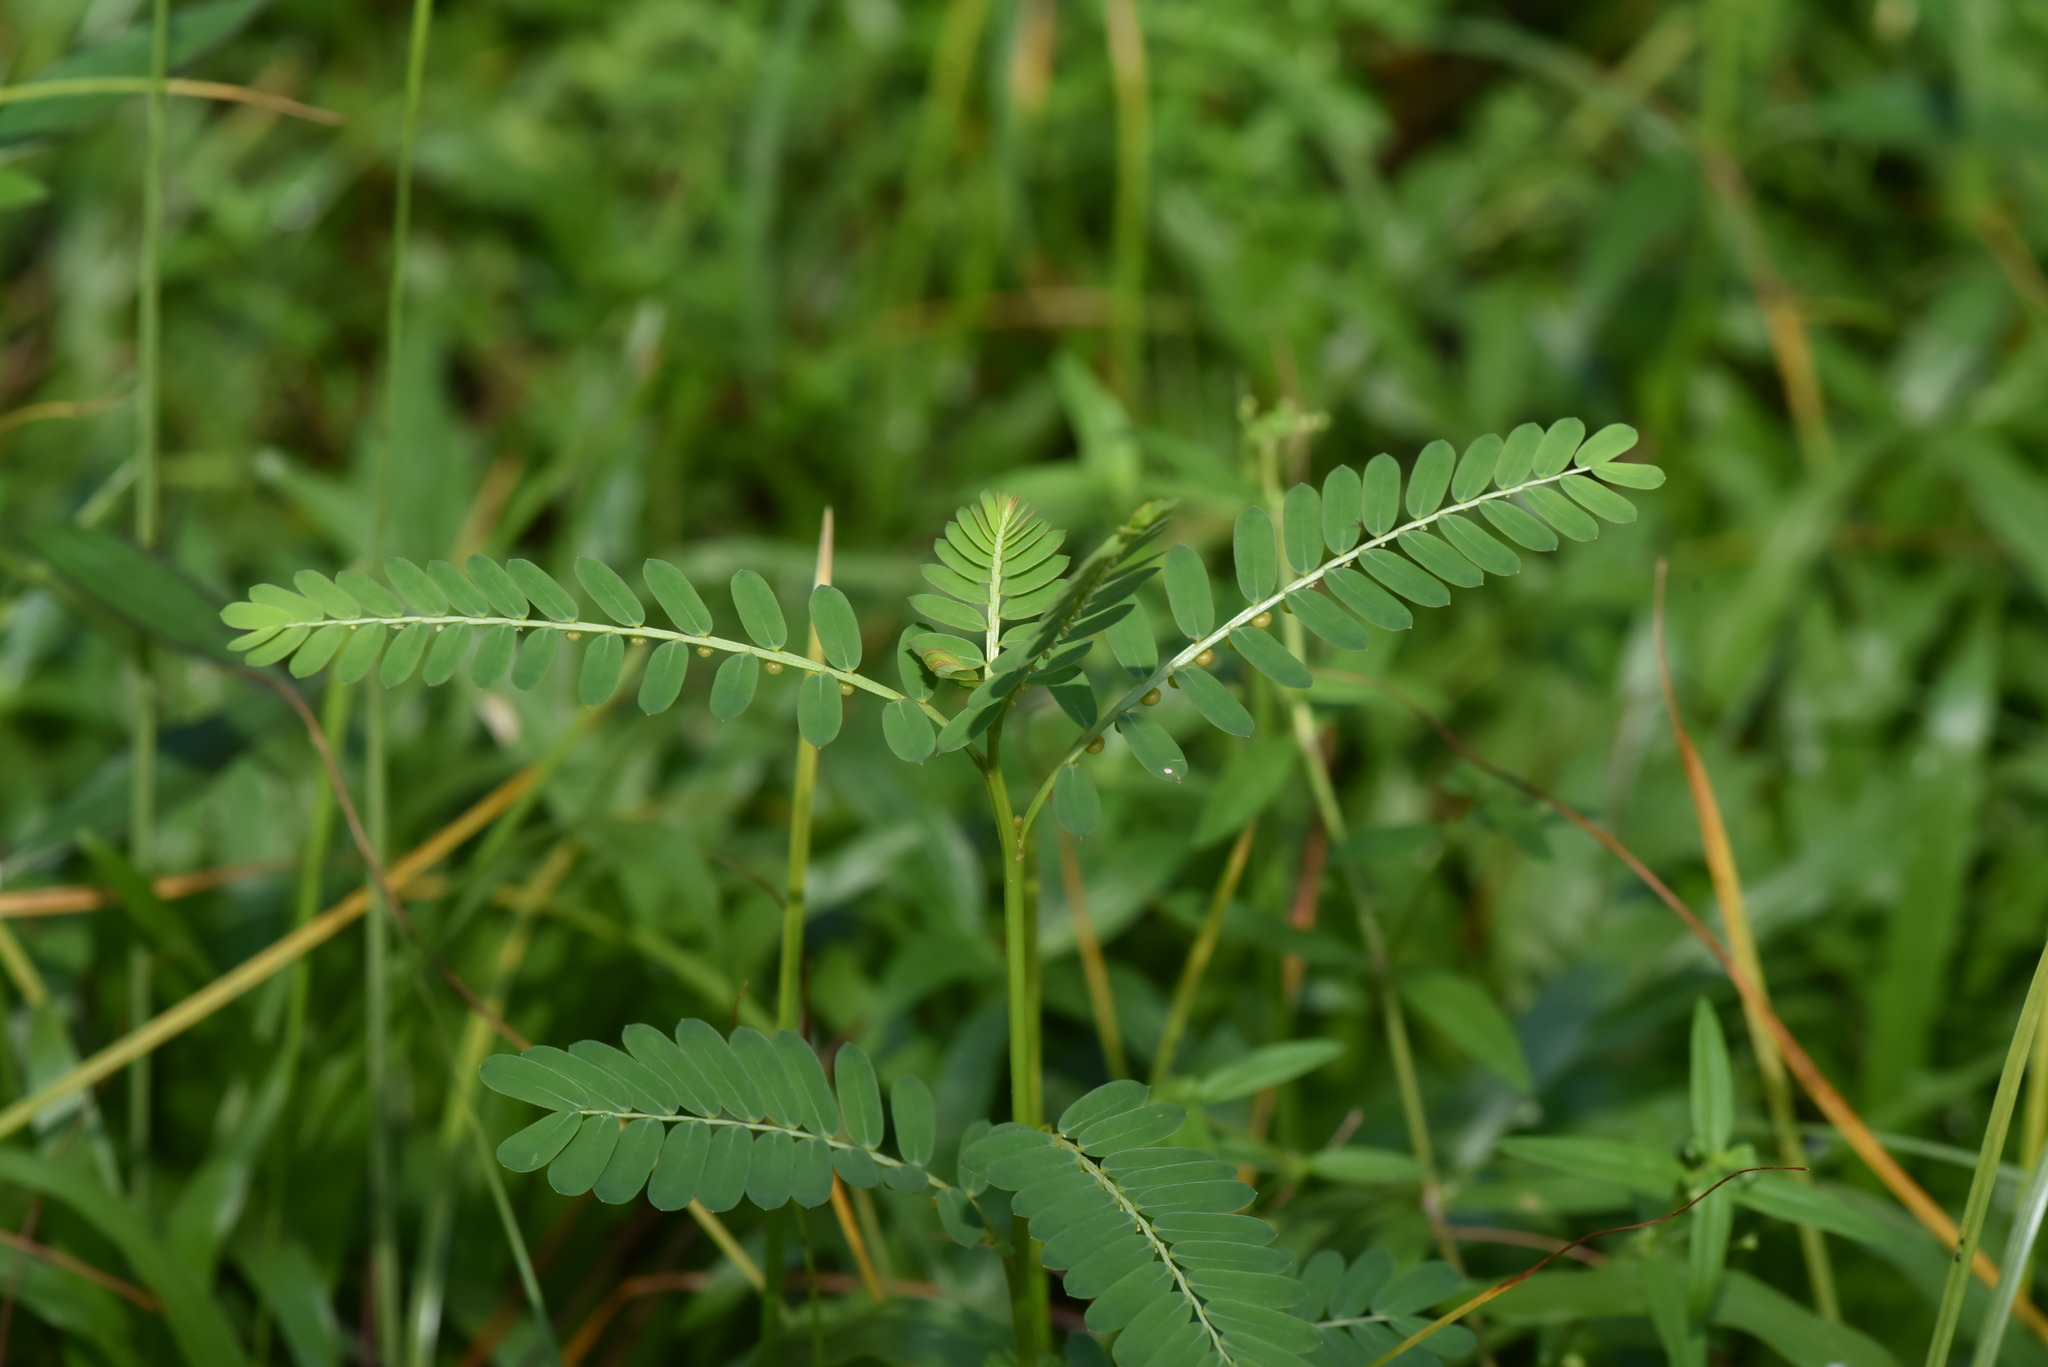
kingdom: Plantae
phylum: Tracheophyta
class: Magnoliopsida
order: Malpighiales
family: Phyllanthaceae
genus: Phyllanthus
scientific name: Phyllanthus urinaria
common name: Chamber bitter
